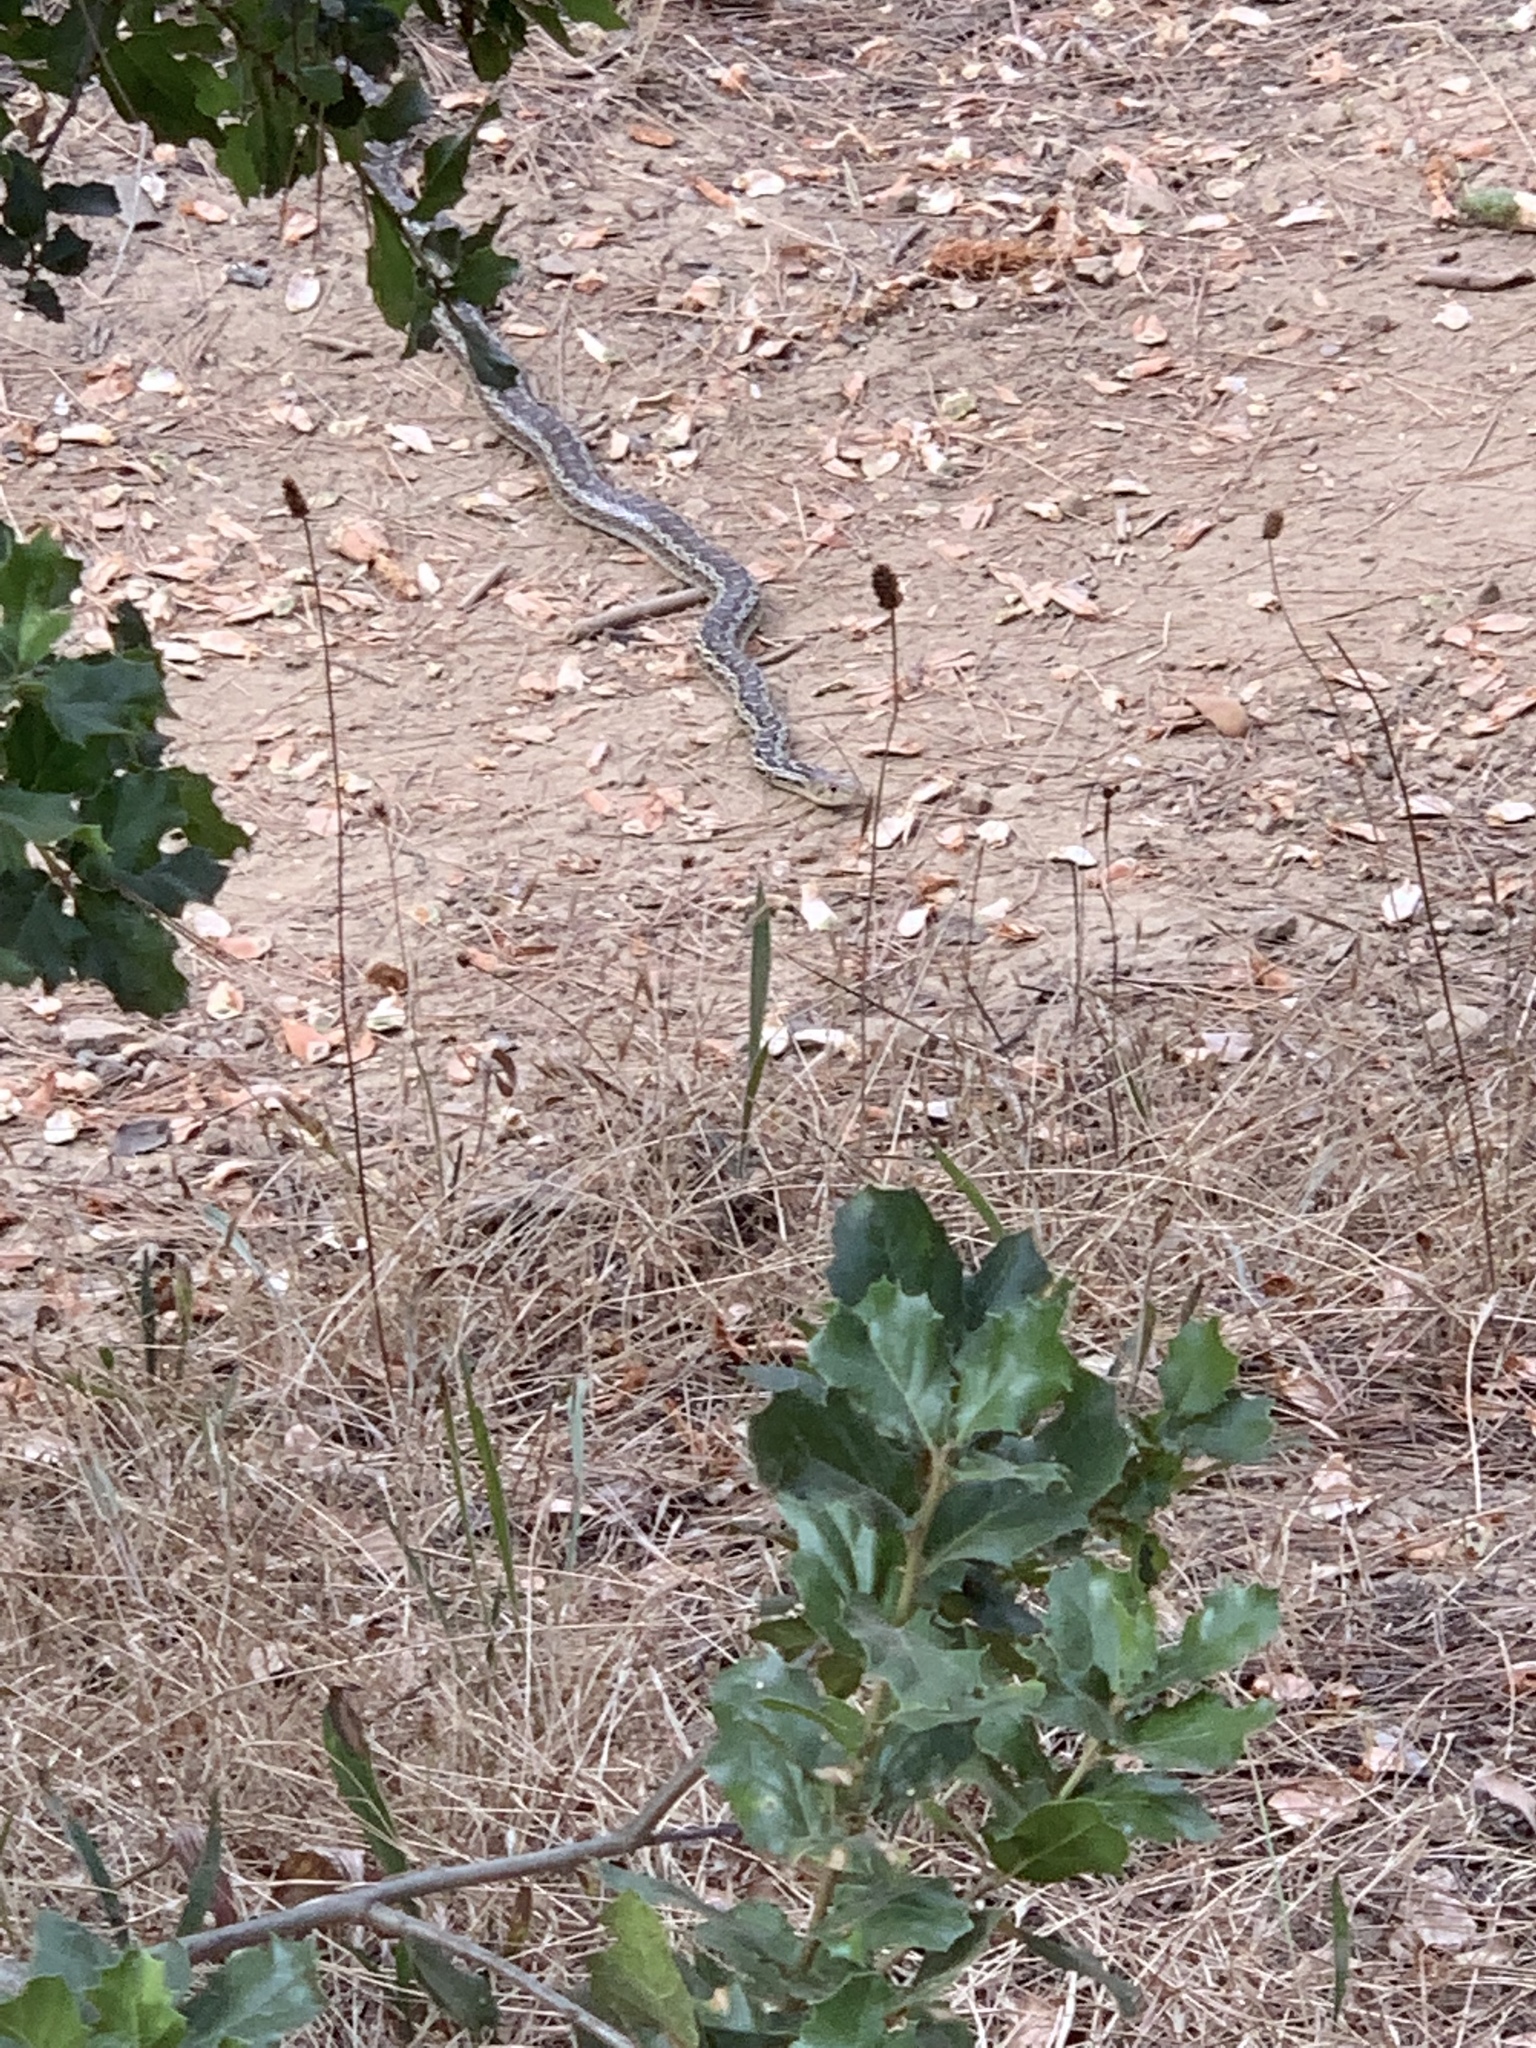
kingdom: Animalia
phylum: Chordata
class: Squamata
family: Colubridae
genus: Pituophis
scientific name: Pituophis catenifer
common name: Gopher snake
